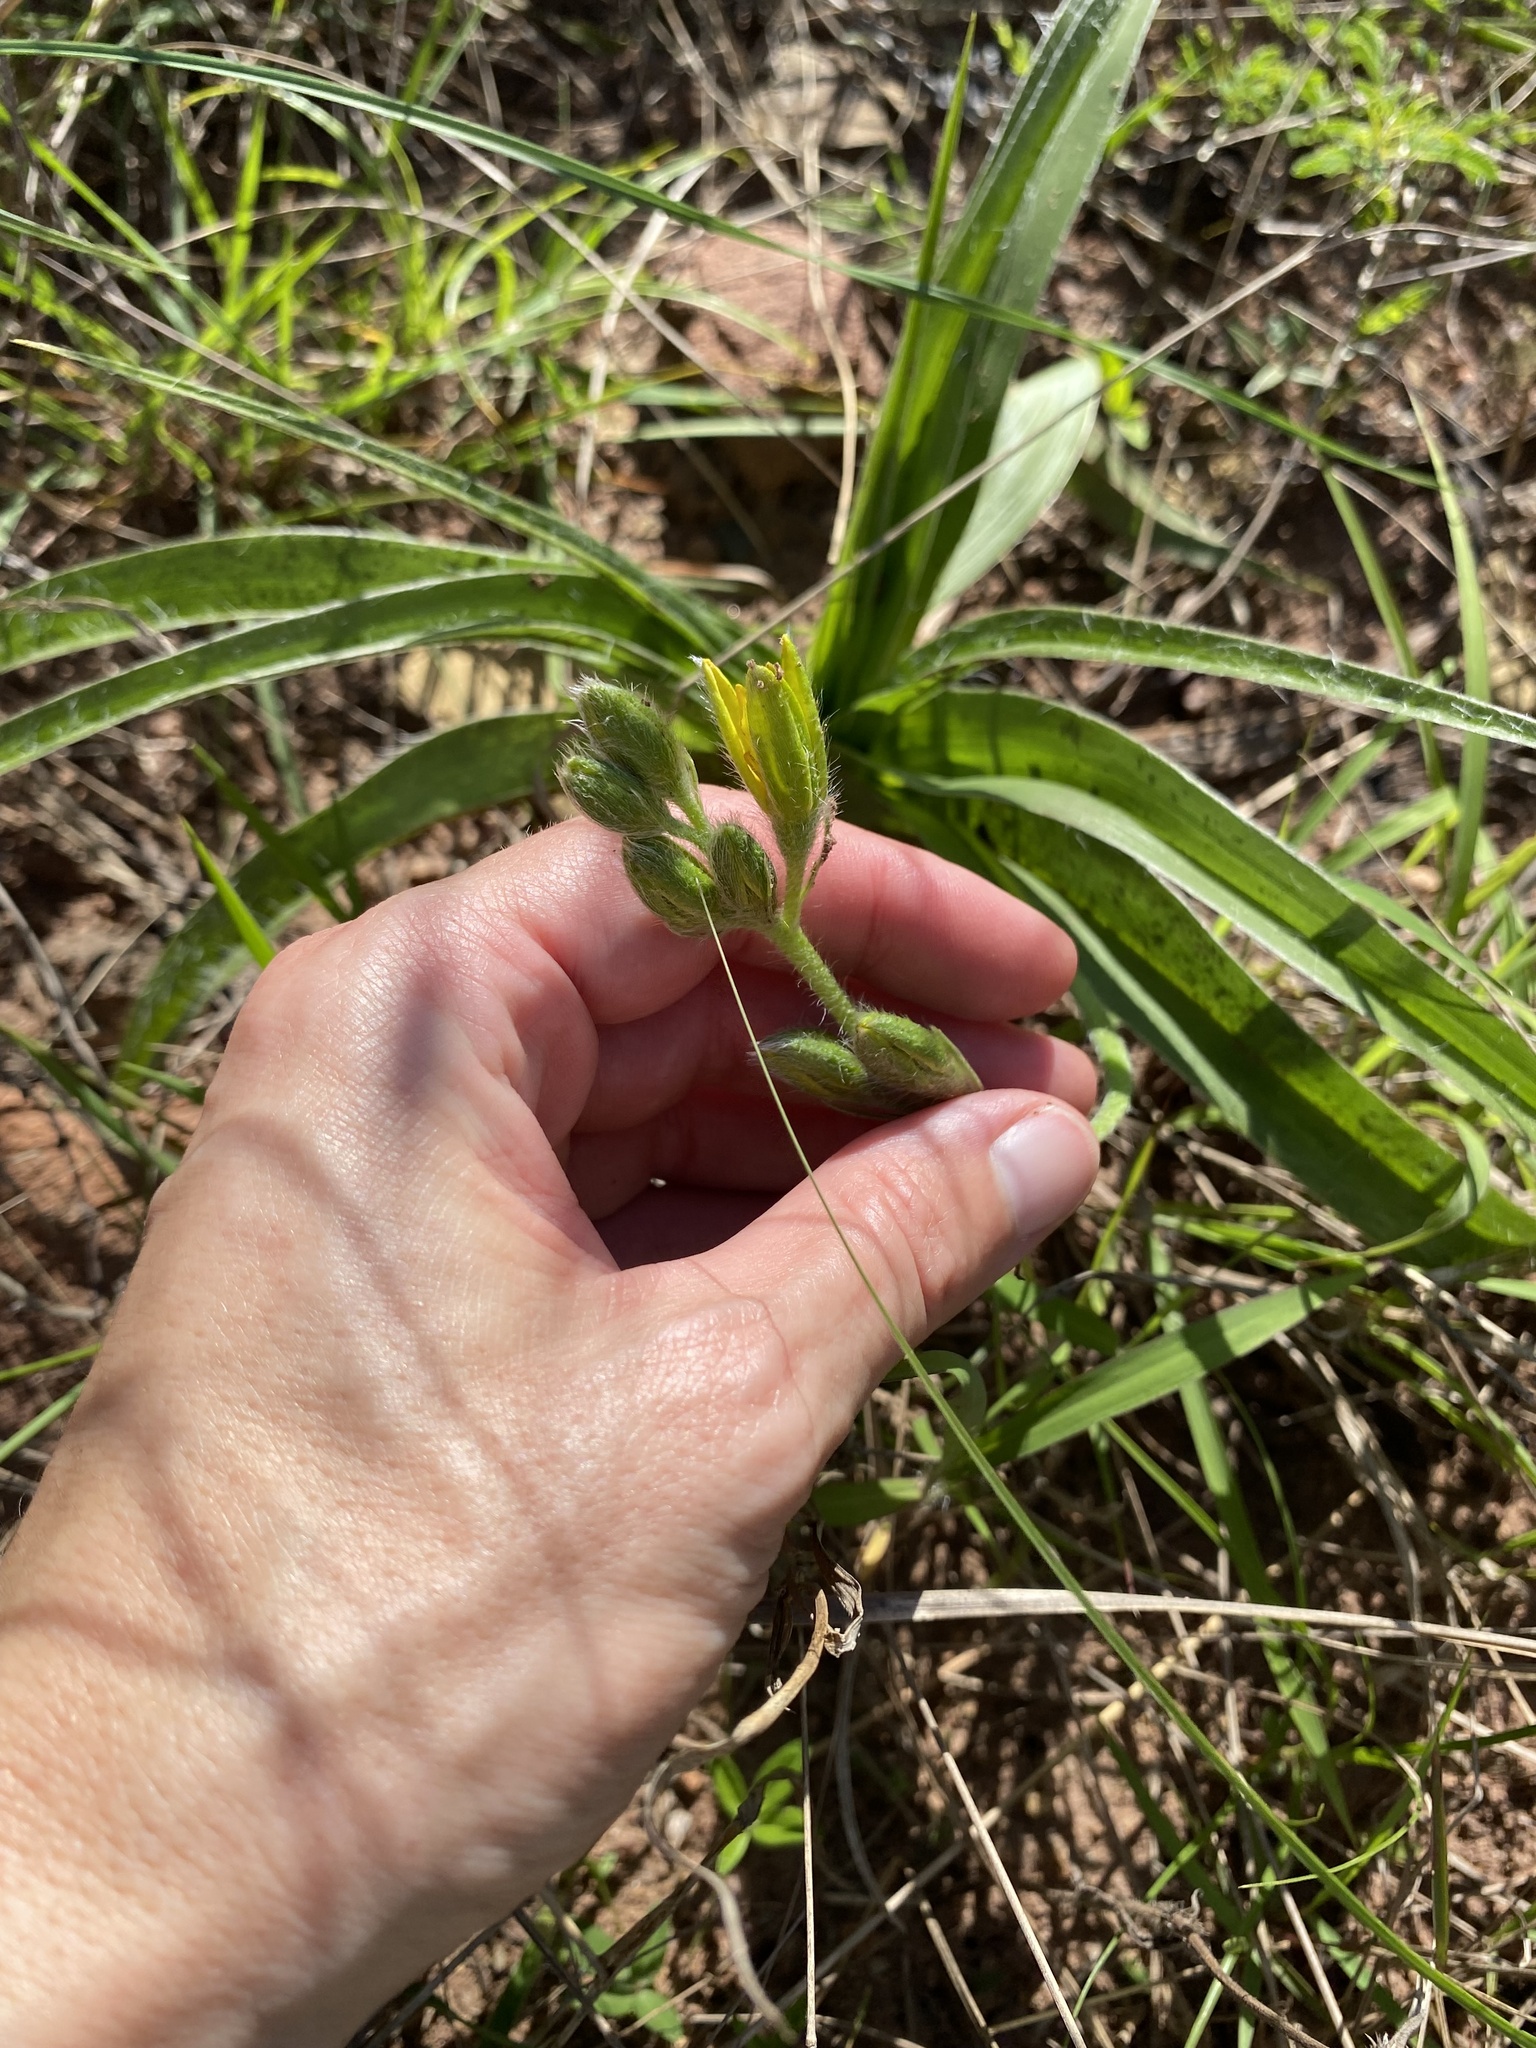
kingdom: Plantae
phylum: Tracheophyta
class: Liliopsida
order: Asparagales
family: Hypoxidaceae
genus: Hypoxis
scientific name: Hypoxis hemerocallidea
